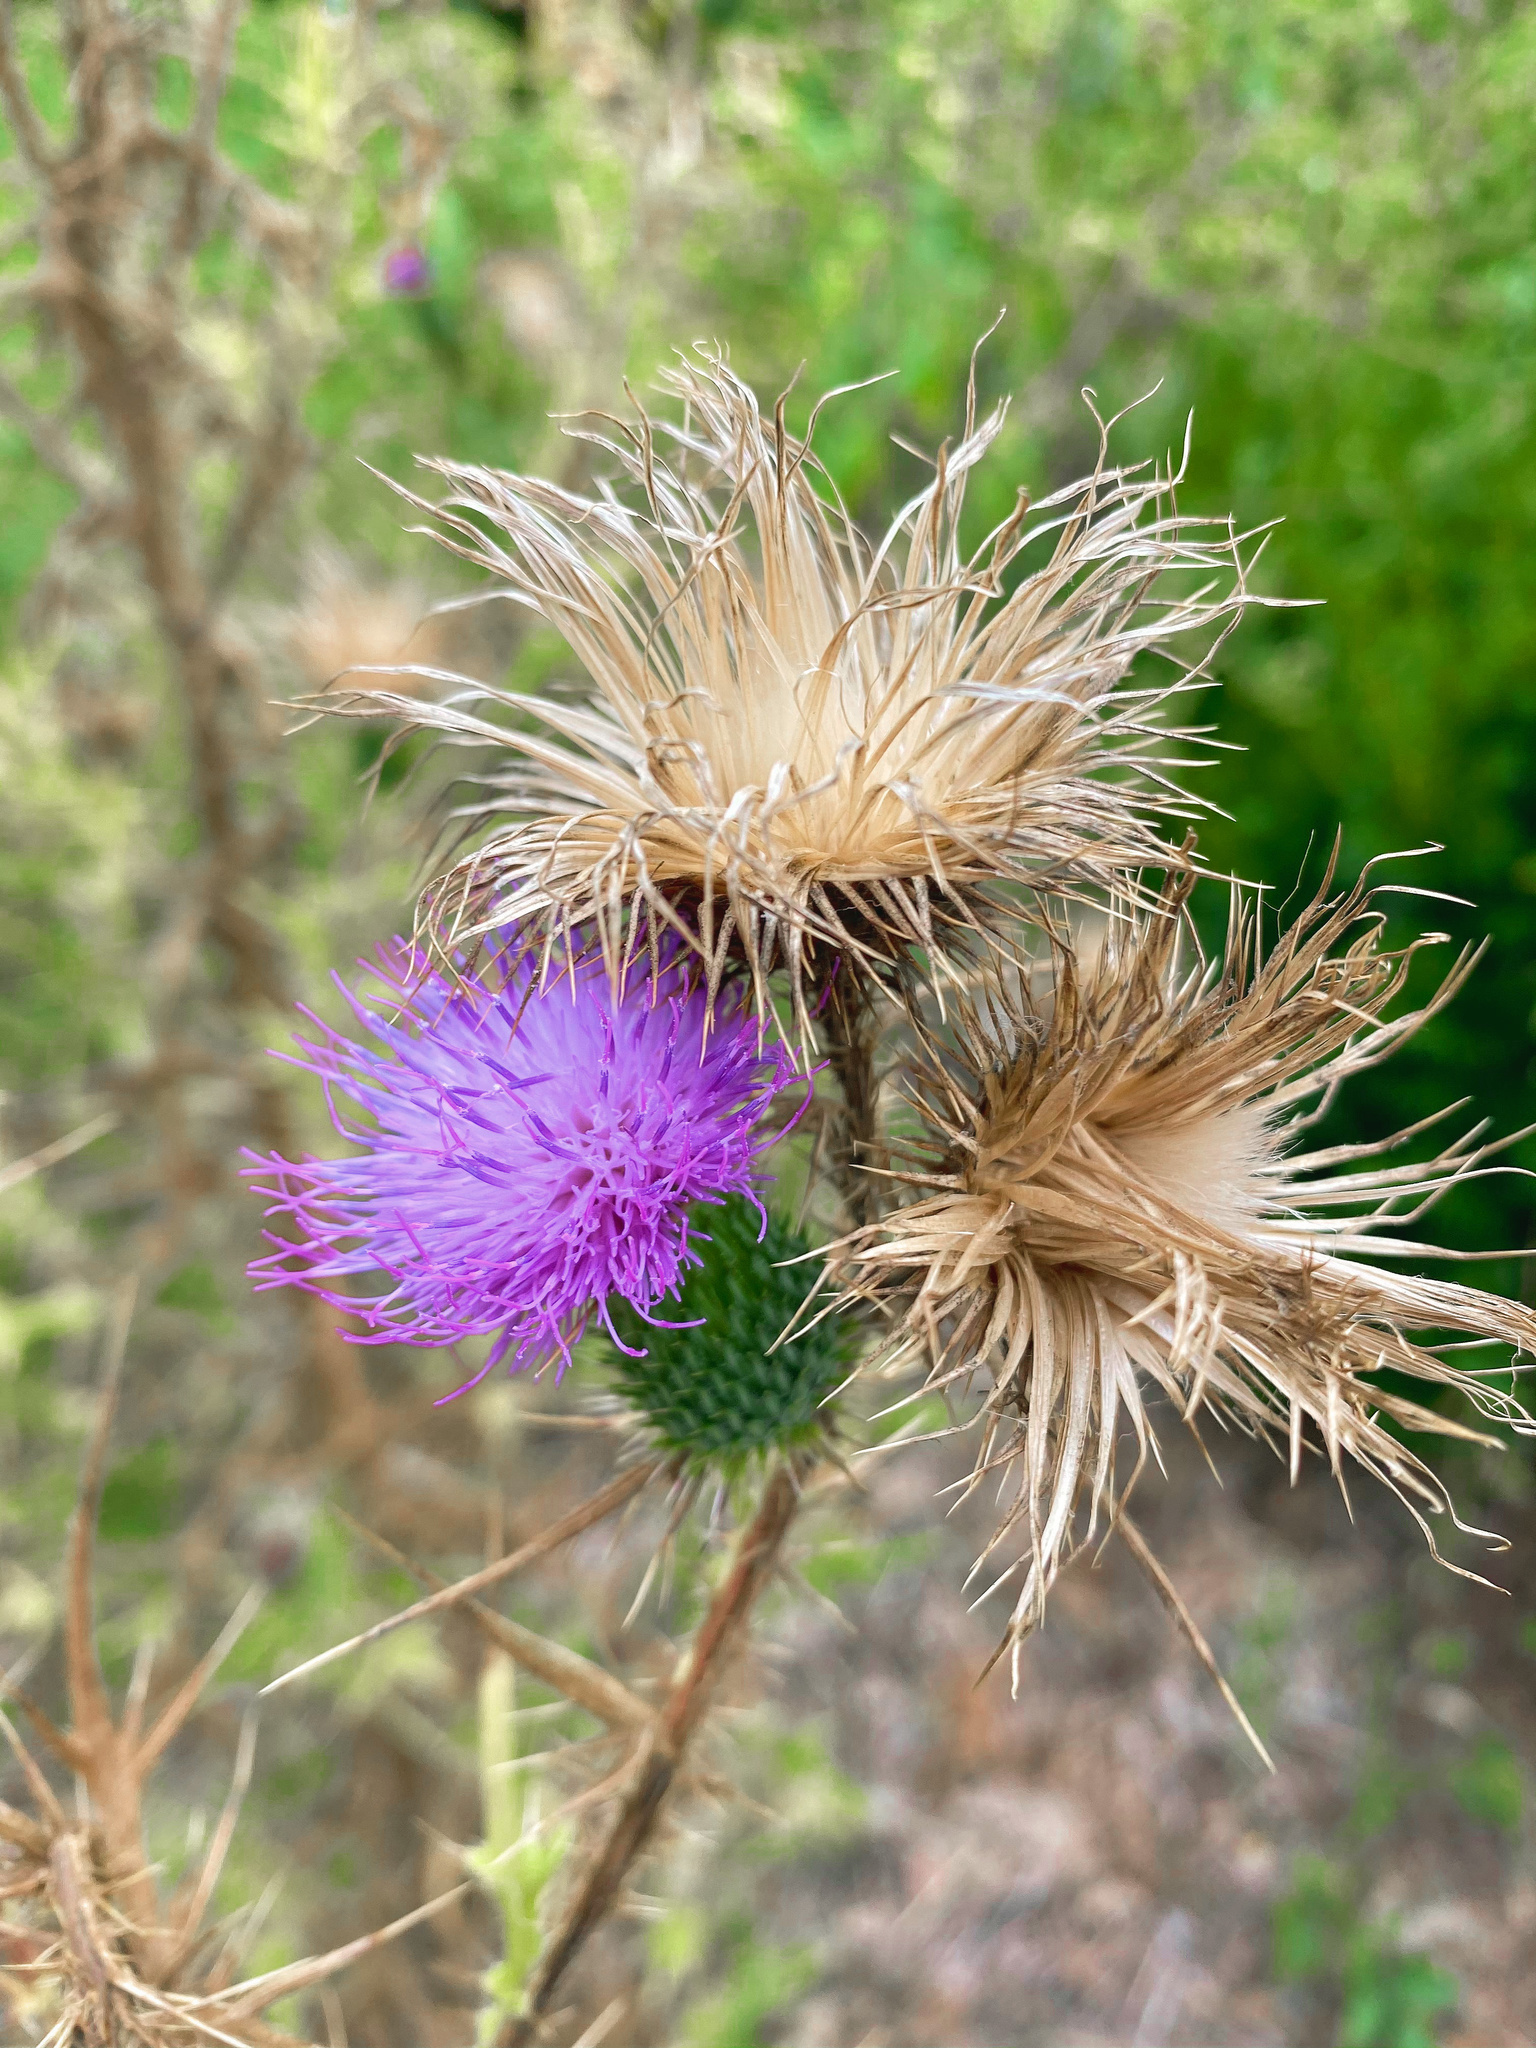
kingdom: Plantae
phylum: Tracheophyta
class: Magnoliopsida
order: Asterales
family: Asteraceae
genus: Cirsium
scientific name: Cirsium vulgare
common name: Bull thistle
